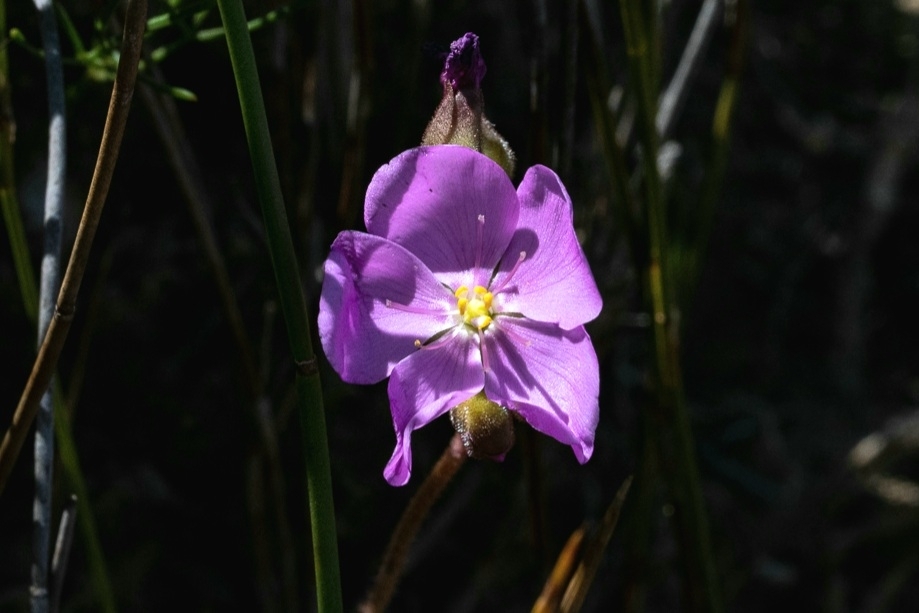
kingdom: Plantae
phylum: Tracheophyta
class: Magnoliopsida
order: Caryophyllales
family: Droseraceae
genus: Drosera
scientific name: Drosera hilaris
